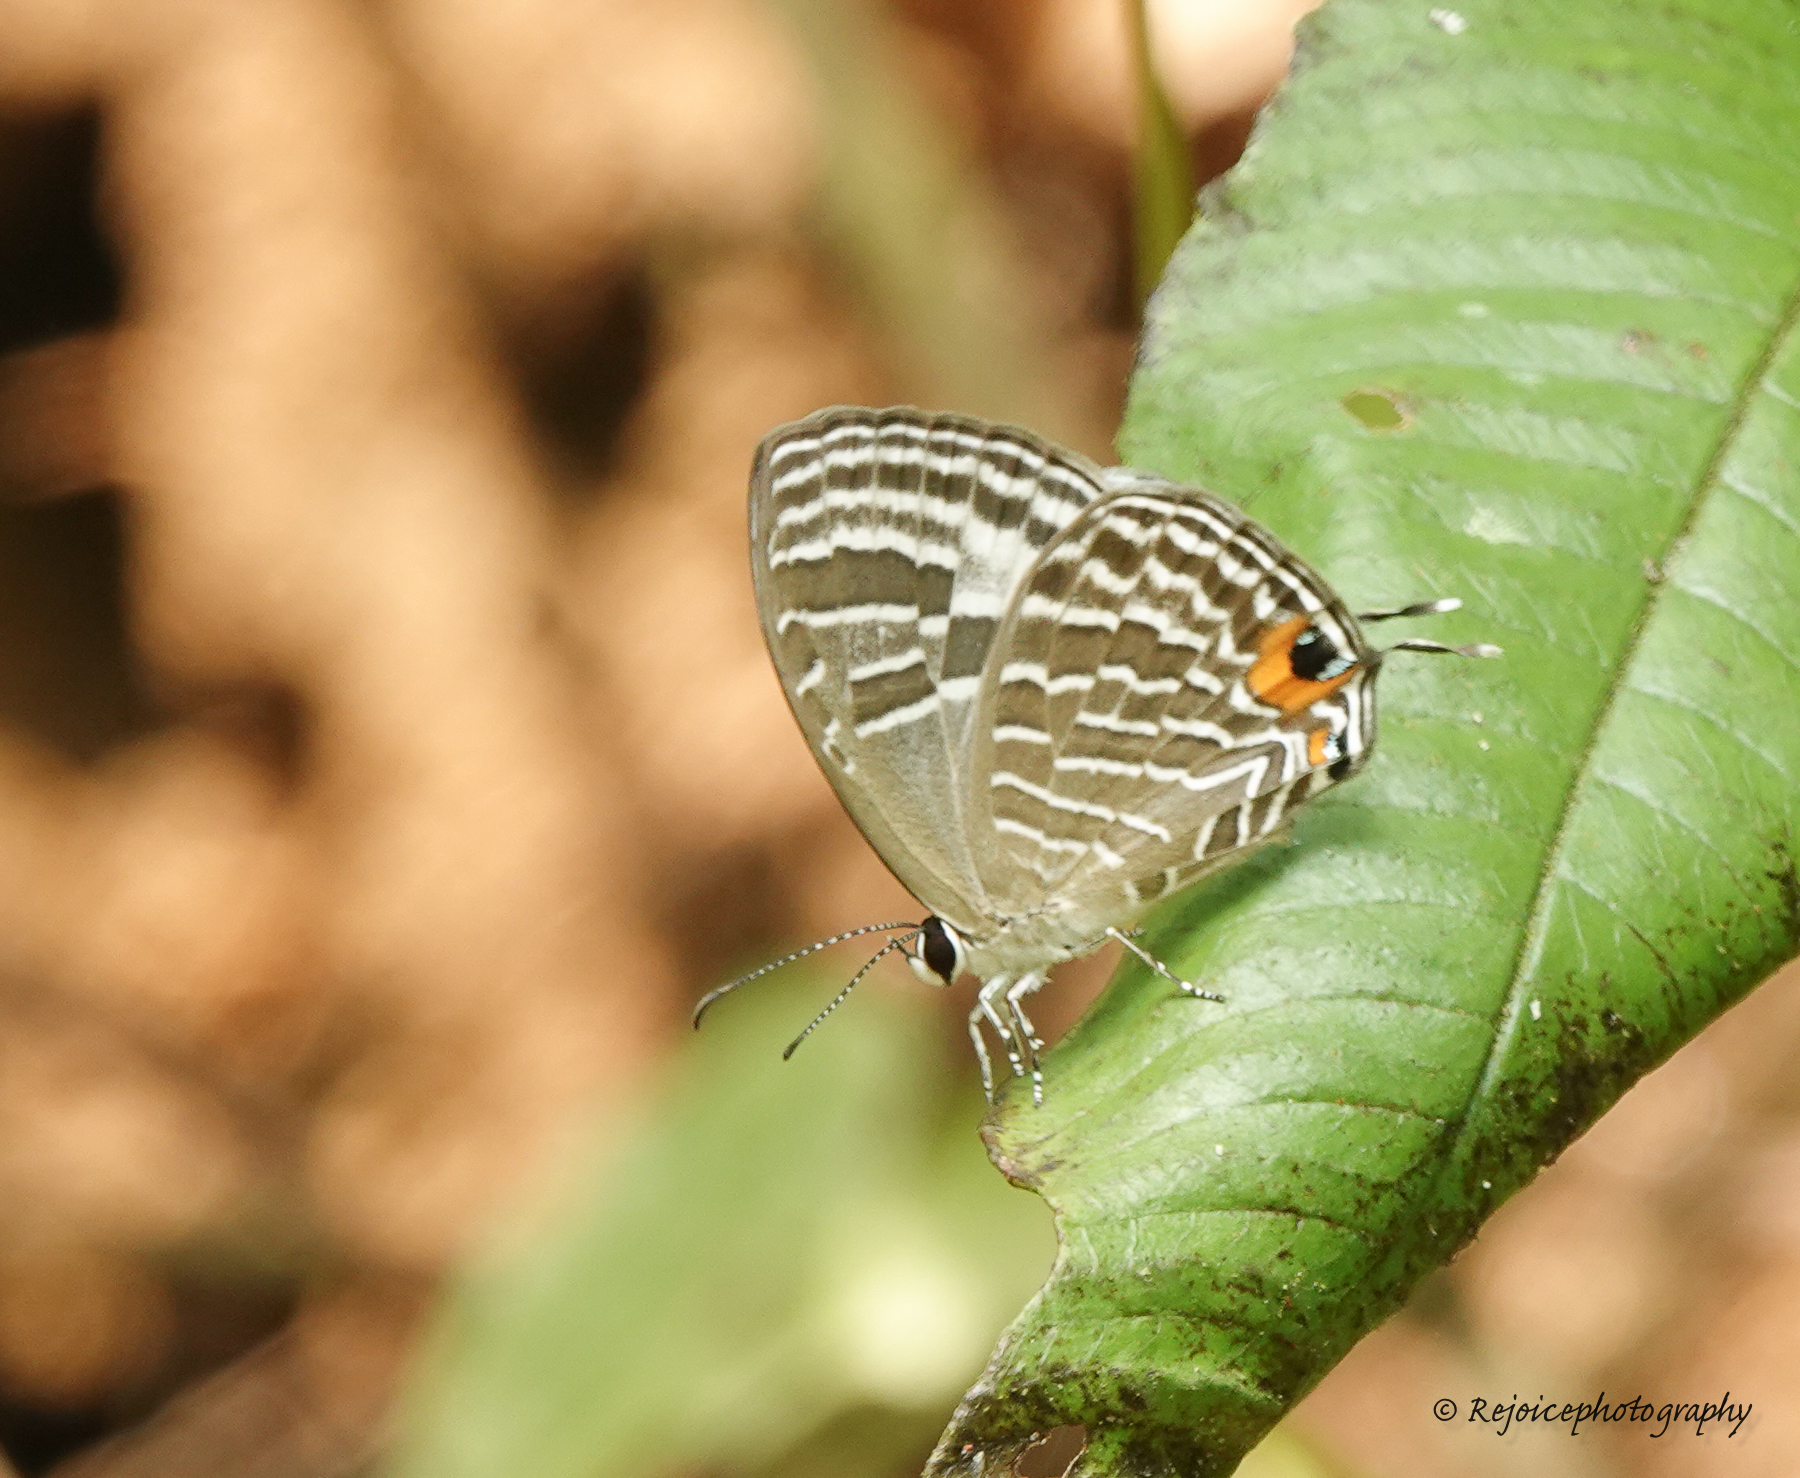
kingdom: Animalia
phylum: Arthropoda
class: Insecta
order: Lepidoptera
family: Lycaenidae
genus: Jamides
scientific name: Jamides bochus
